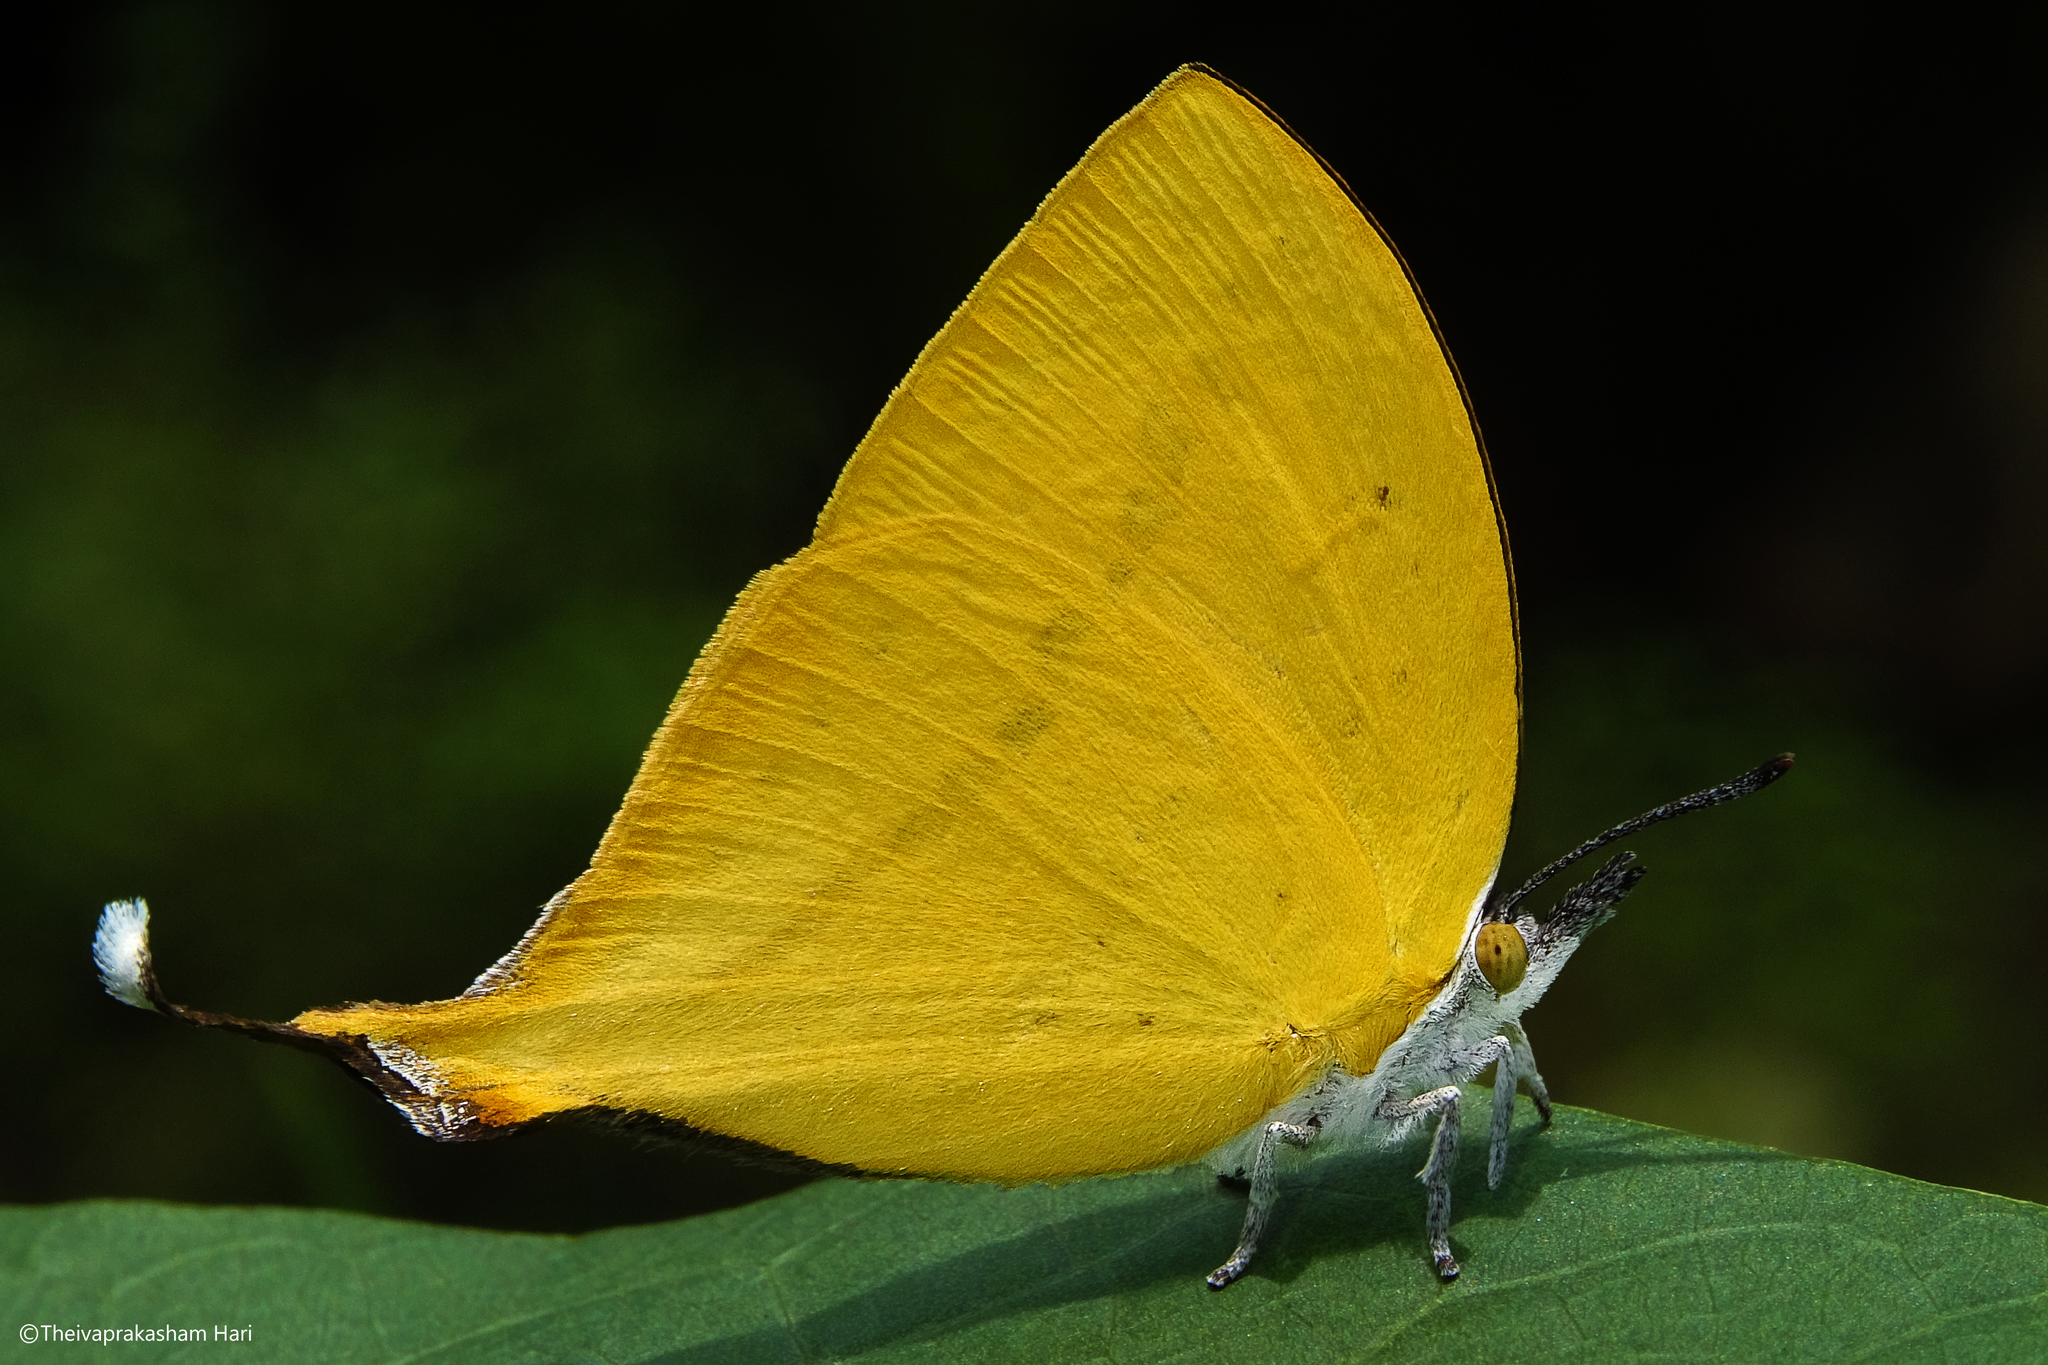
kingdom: Animalia
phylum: Arthropoda
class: Insecta
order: Lepidoptera
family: Lycaenidae
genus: Loxura
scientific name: Loxura atymnus
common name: Common yamfly
